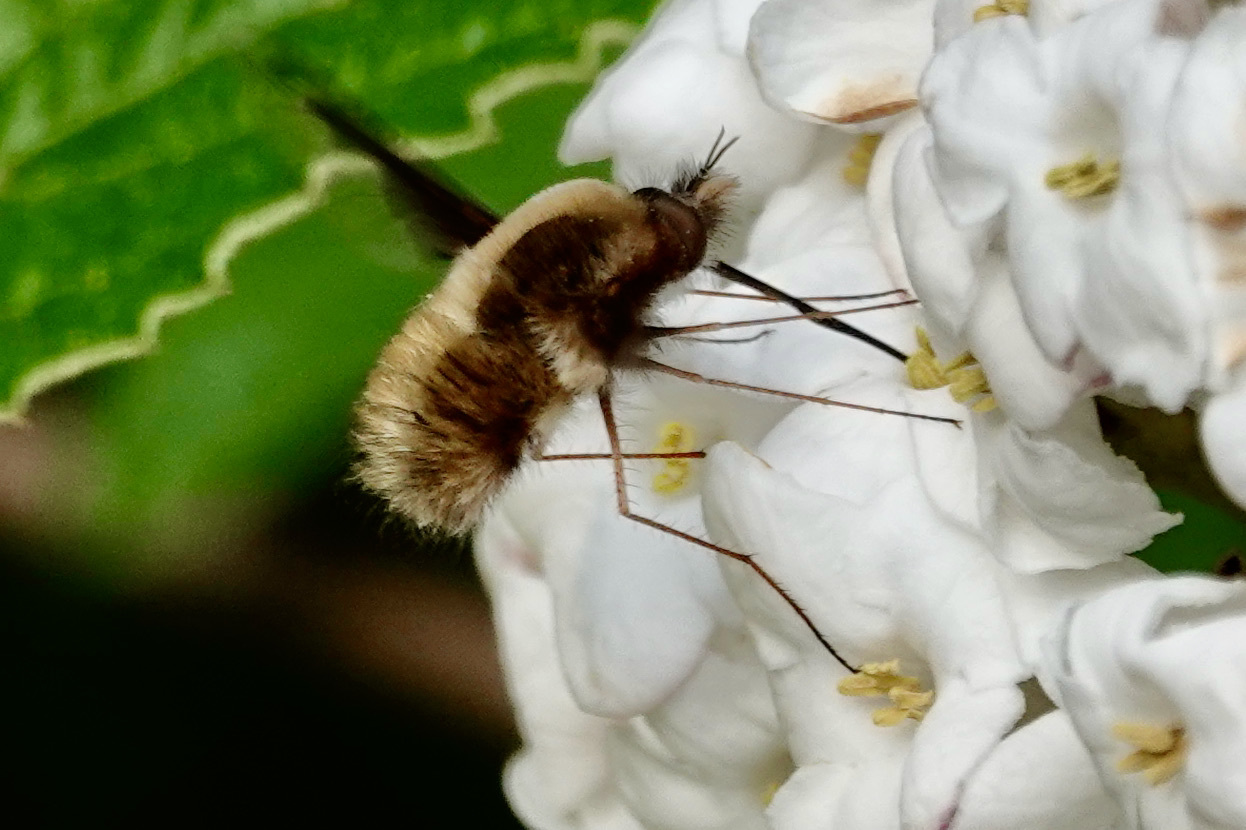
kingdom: Animalia
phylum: Arthropoda
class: Insecta
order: Diptera
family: Bombyliidae
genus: Bombylius
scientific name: Bombylius major
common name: Bee fly
